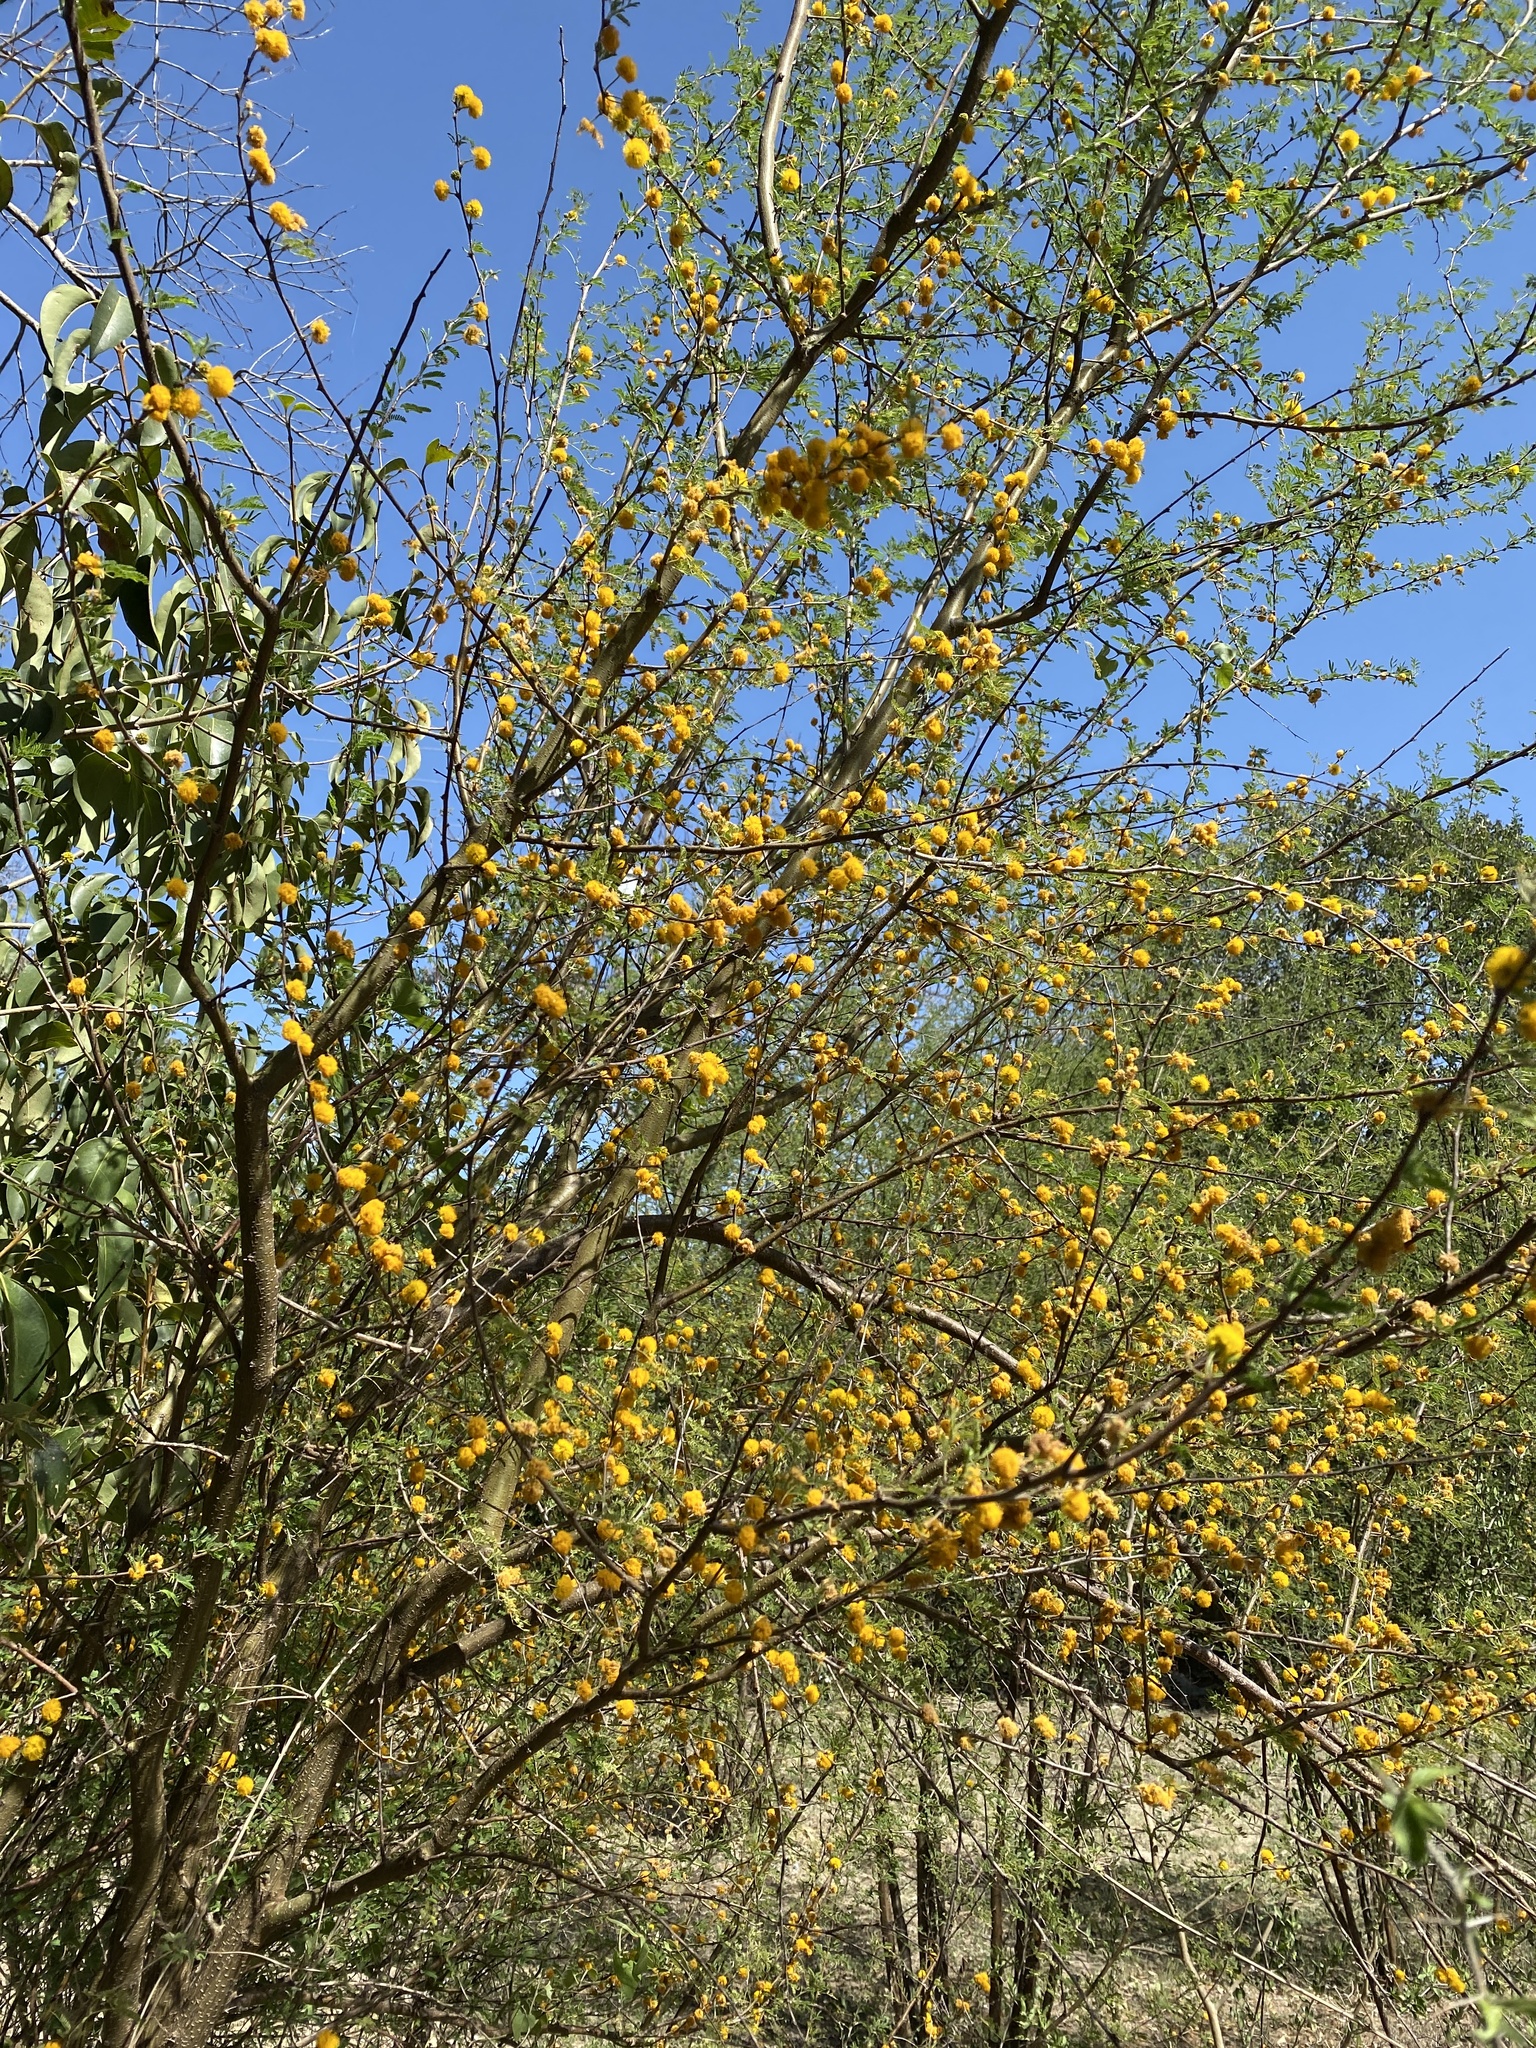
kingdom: Plantae
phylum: Tracheophyta
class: Magnoliopsida
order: Fabales
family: Fabaceae
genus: Vachellia
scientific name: Vachellia farnesiana
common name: Sweet acacia
